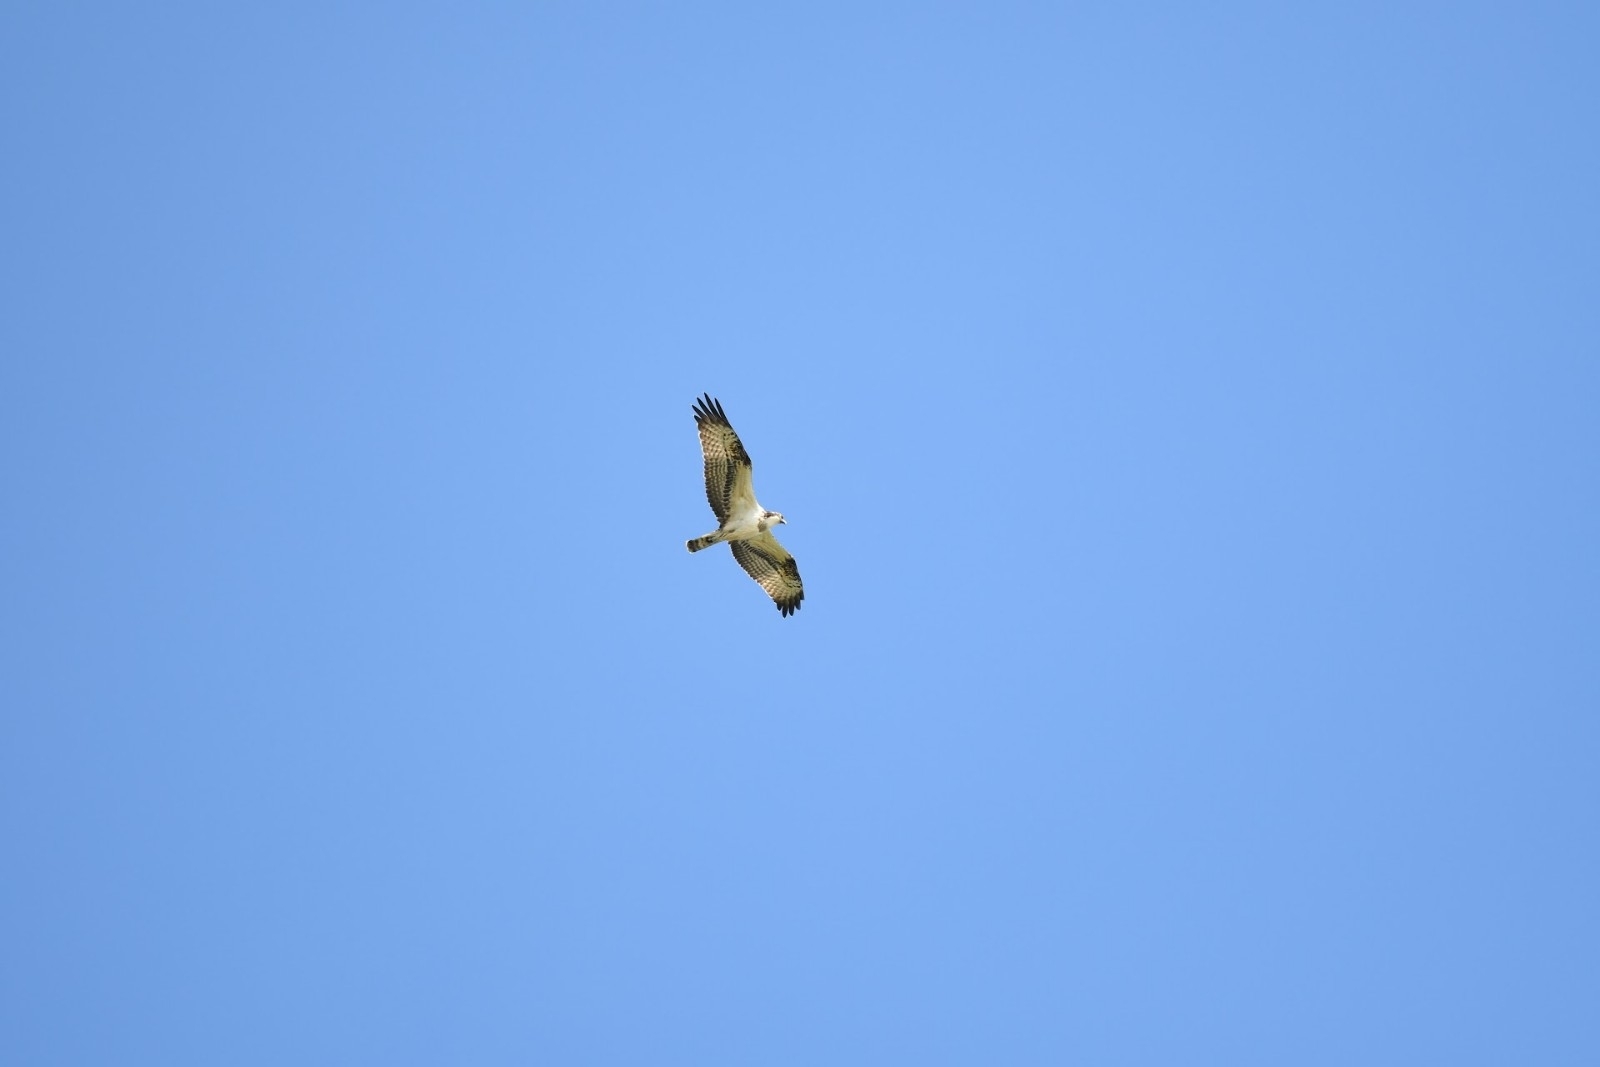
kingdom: Animalia
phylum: Chordata
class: Aves
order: Accipitriformes
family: Pandionidae
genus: Pandion
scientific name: Pandion haliaetus
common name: Osprey
